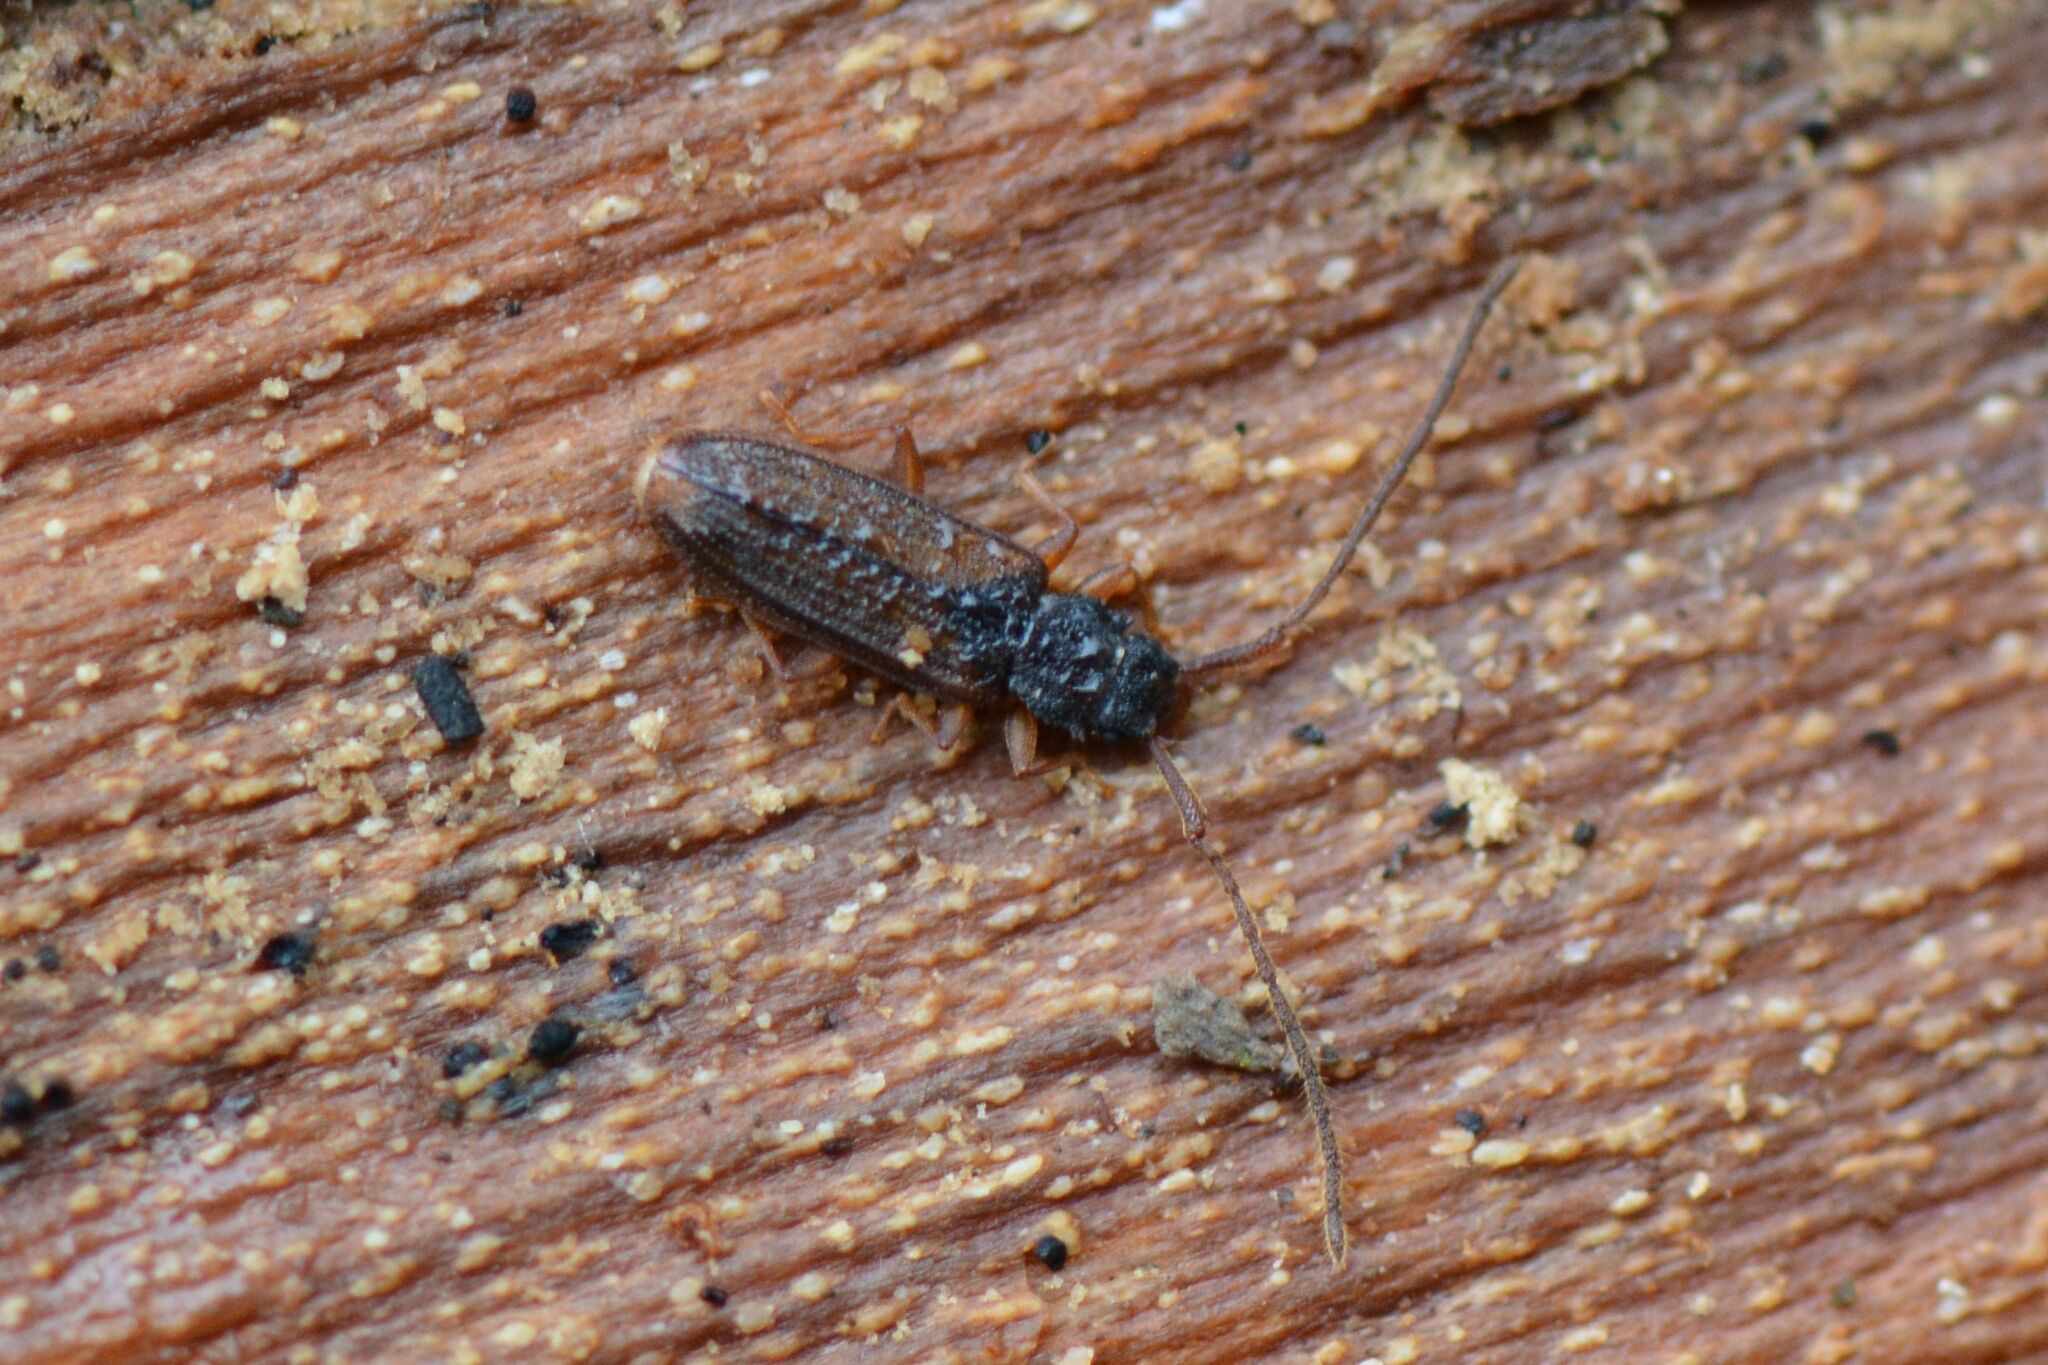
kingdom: Animalia
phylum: Arthropoda
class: Insecta
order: Coleoptera
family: Silvanidae
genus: Uleiota
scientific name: Uleiota planatus
